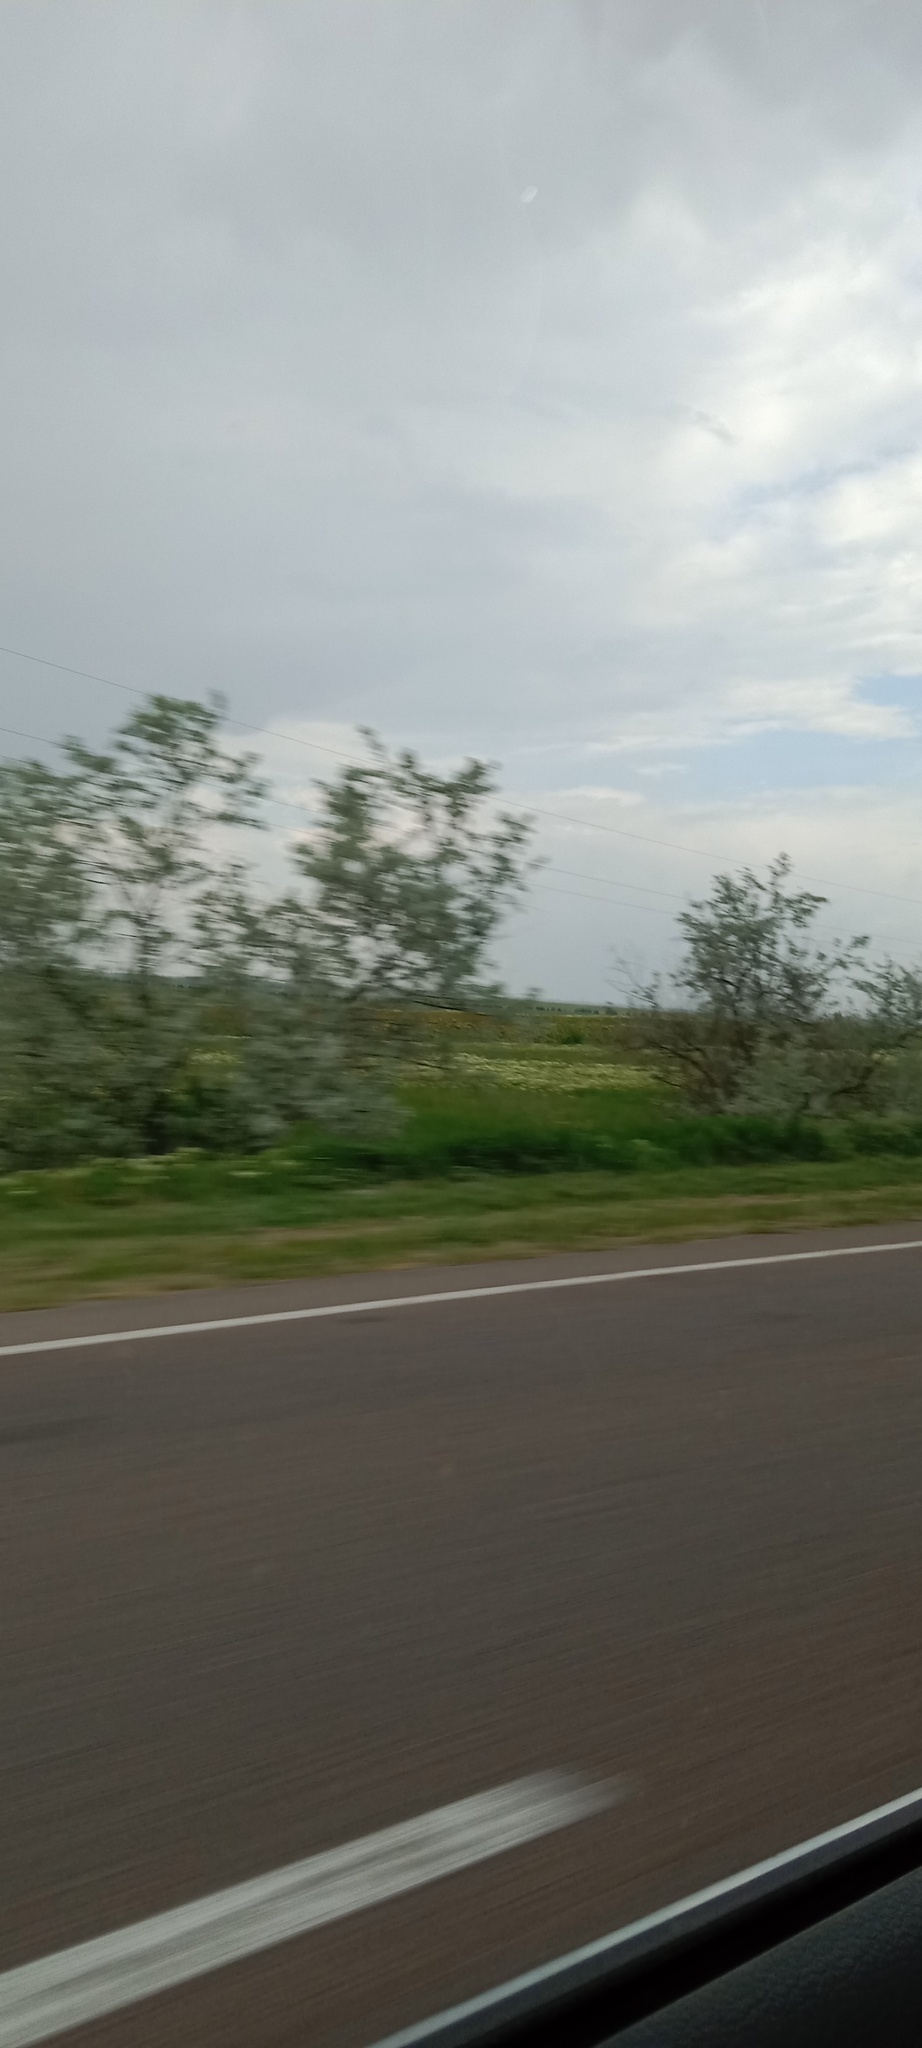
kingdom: Plantae
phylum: Tracheophyta
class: Magnoliopsida
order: Rosales
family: Elaeagnaceae
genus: Elaeagnus
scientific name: Elaeagnus angustifolia
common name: Russian olive
